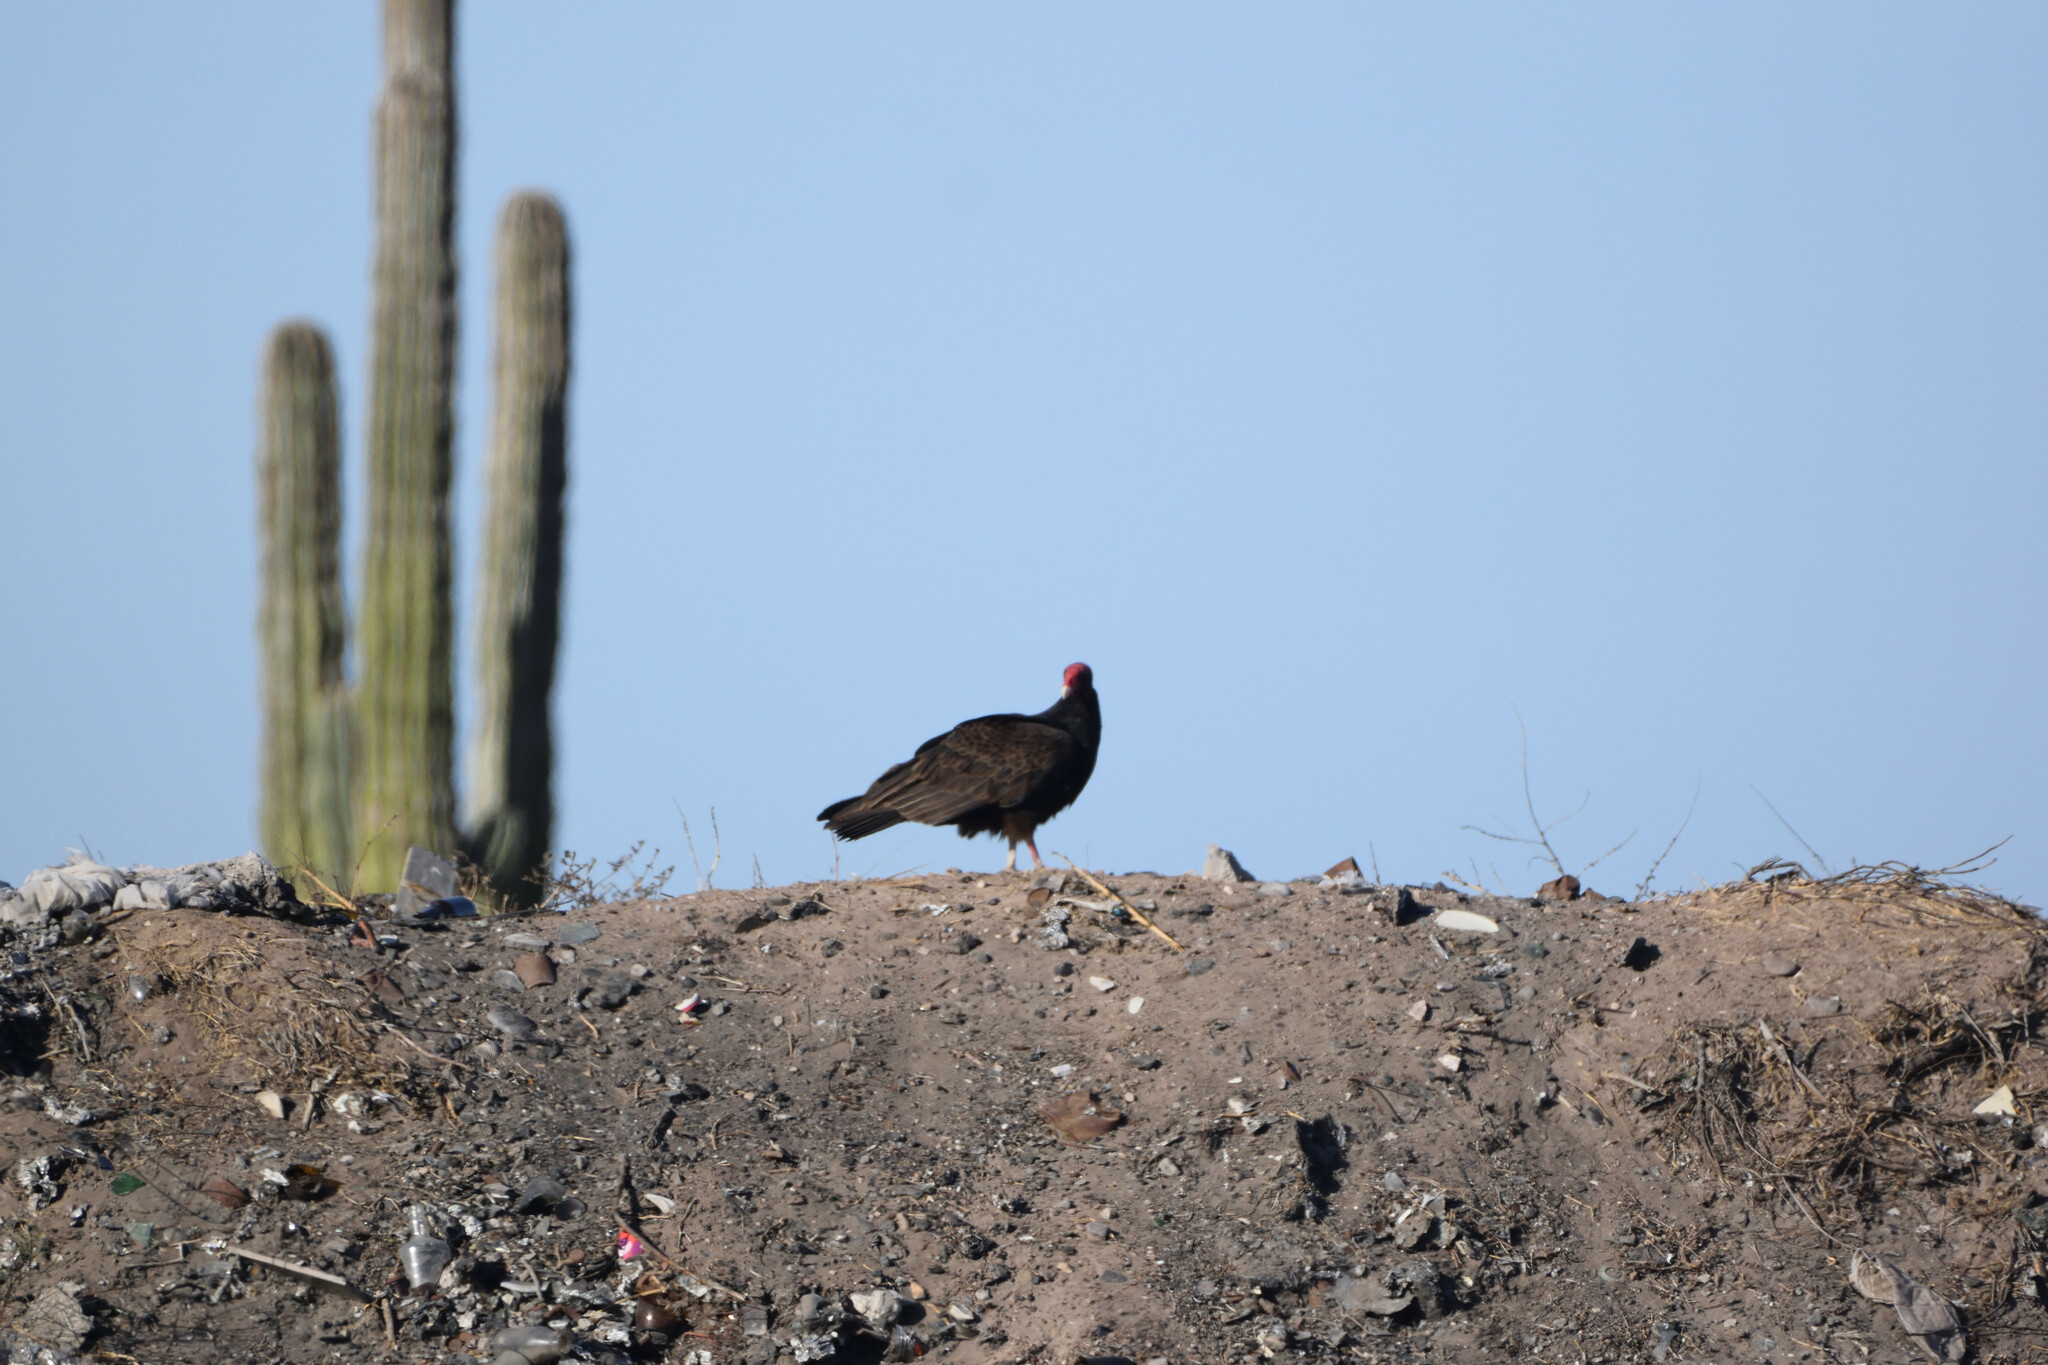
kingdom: Animalia
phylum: Chordata
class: Aves
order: Accipitriformes
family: Cathartidae
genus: Cathartes
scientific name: Cathartes aura
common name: Turkey vulture
